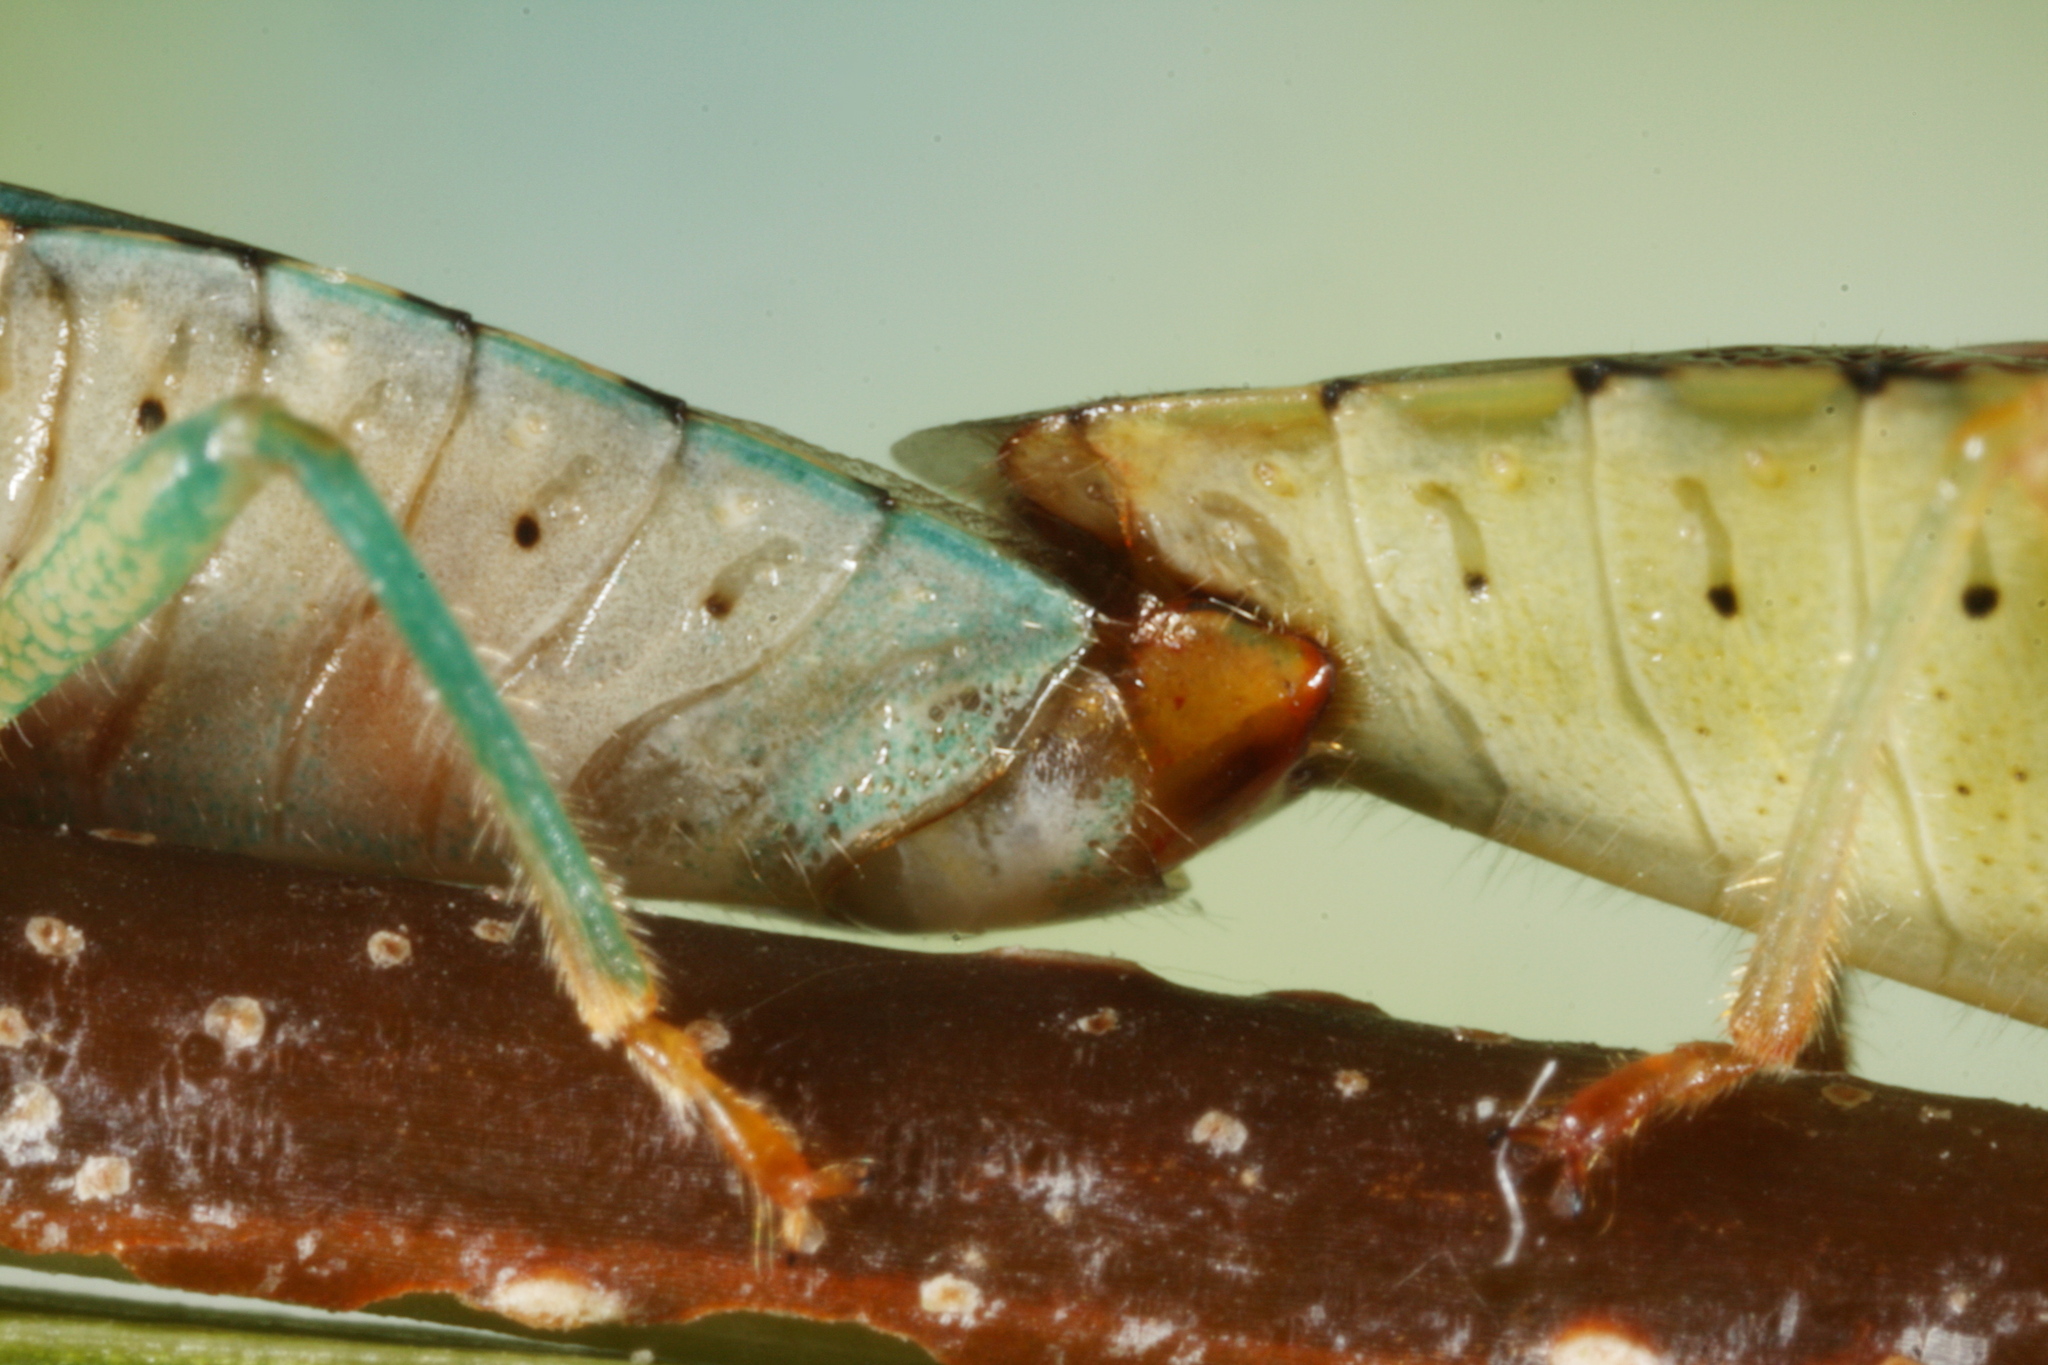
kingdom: Animalia
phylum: Arthropoda
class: Insecta
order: Hemiptera
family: Acanthosomatidae
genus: Elasmucha
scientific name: Elasmucha grisea
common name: Parent bug
